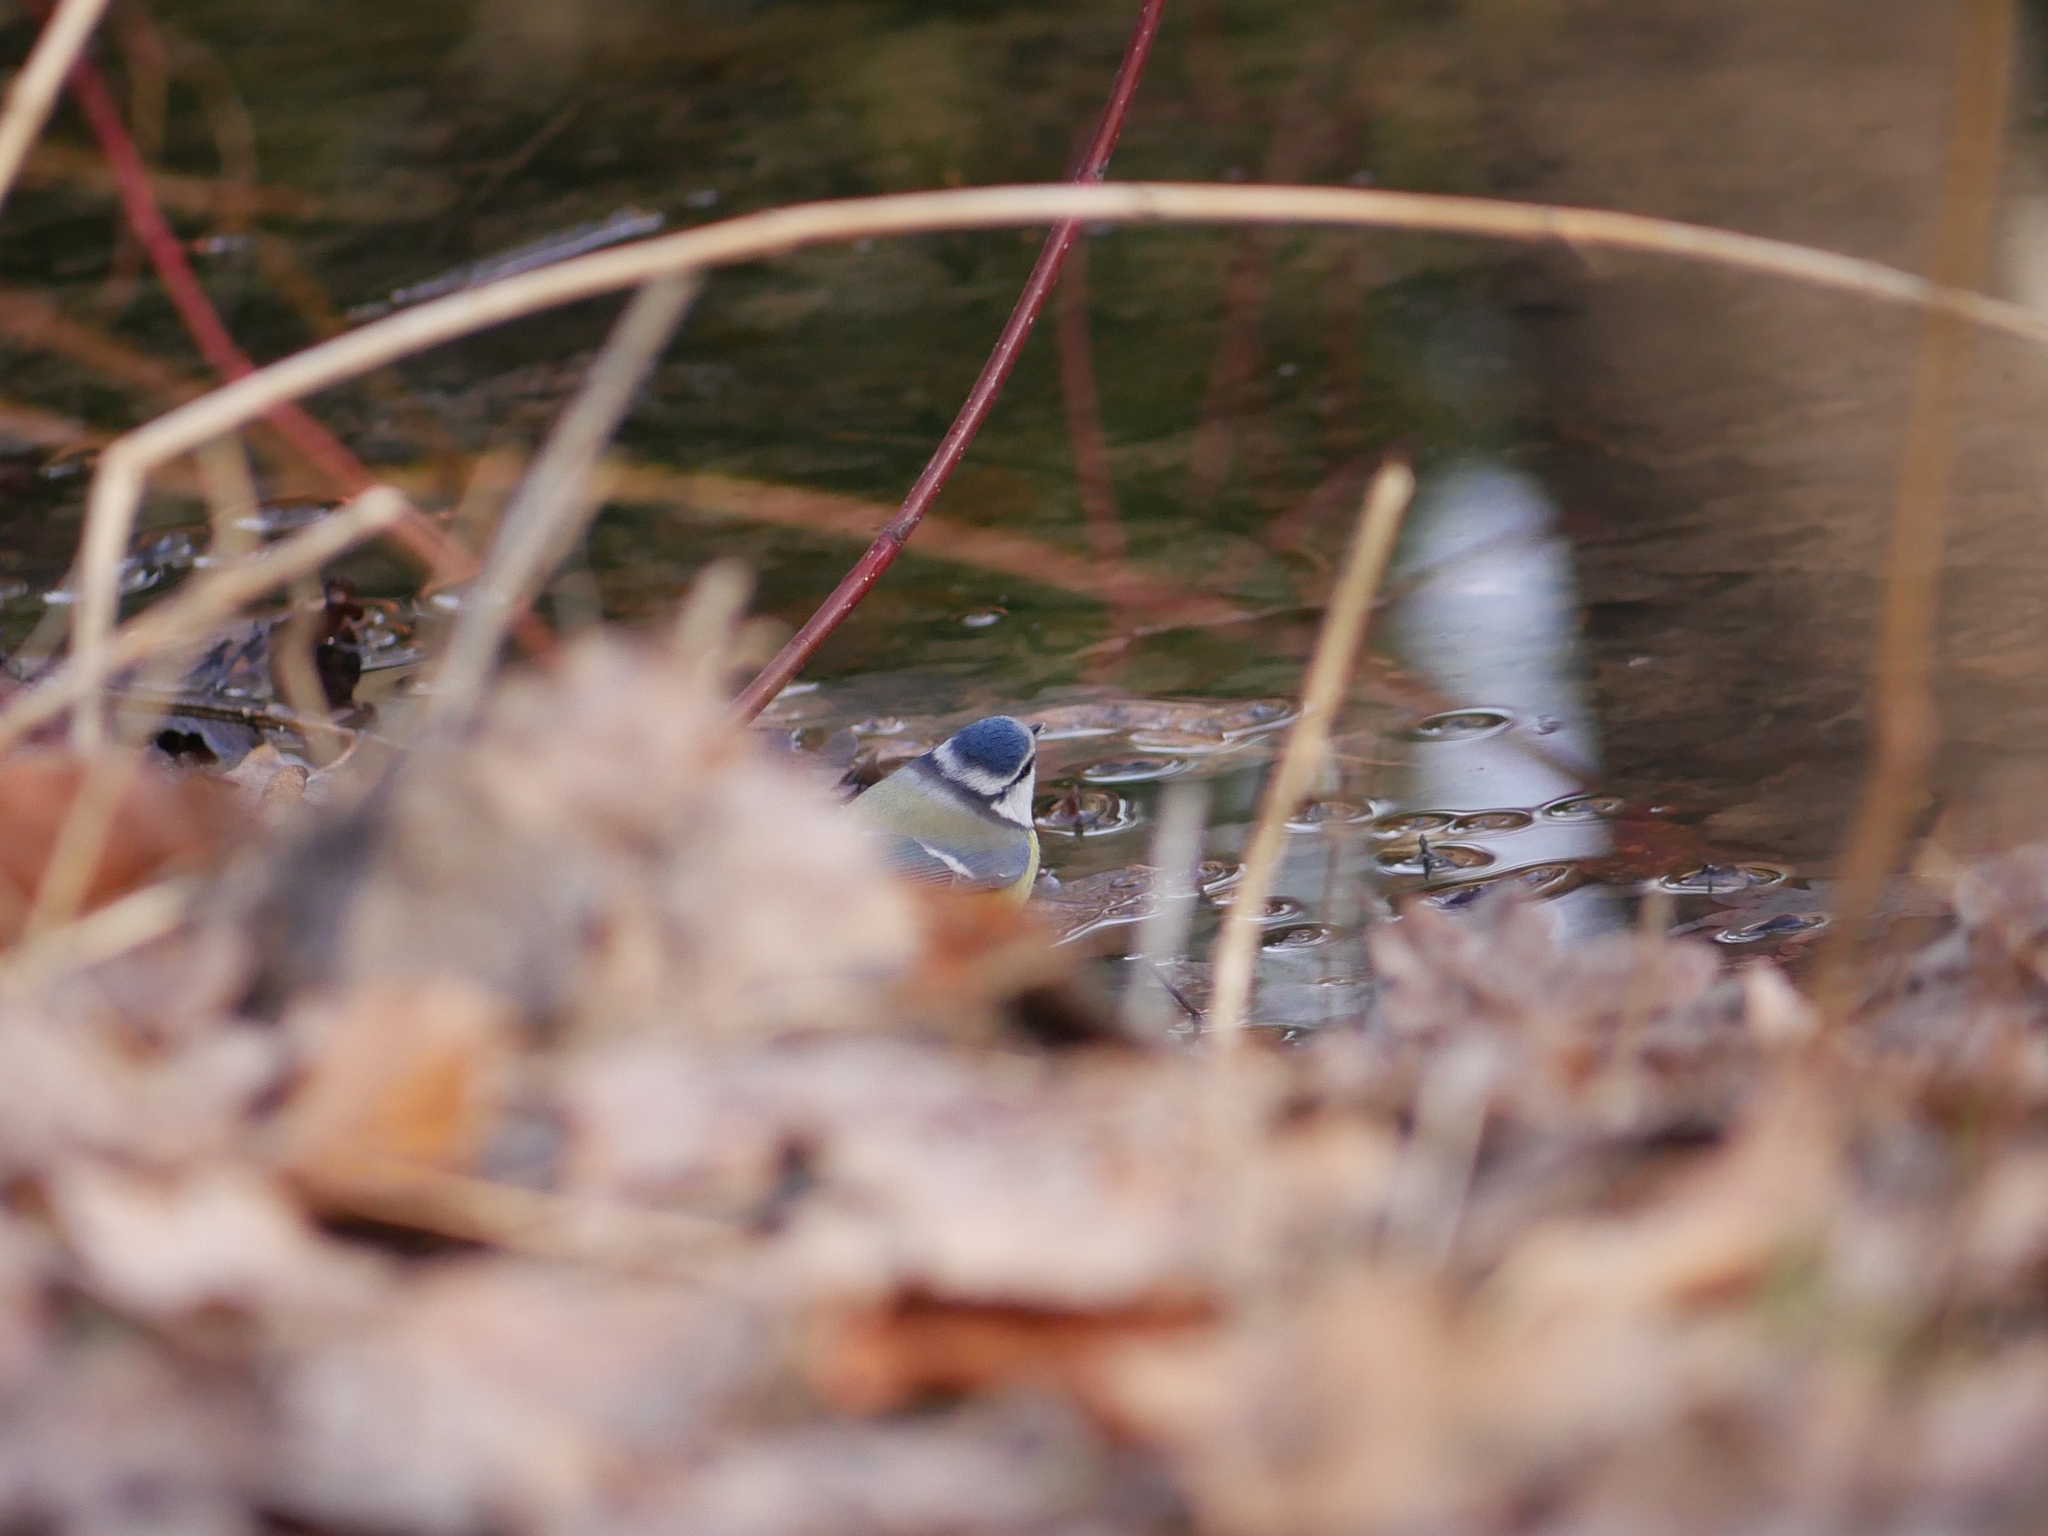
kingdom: Animalia
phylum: Chordata
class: Aves
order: Passeriformes
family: Paridae
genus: Cyanistes
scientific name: Cyanistes caeruleus
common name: Eurasian blue tit
